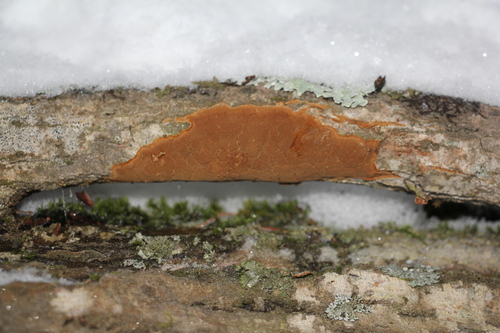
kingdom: Fungi
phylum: Basidiomycota
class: Agaricomycetes
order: Hymenochaetales
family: Hymenochaetaceae
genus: Fomitiporia
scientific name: Fomitiporia punctata
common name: Elbowpatch crust
